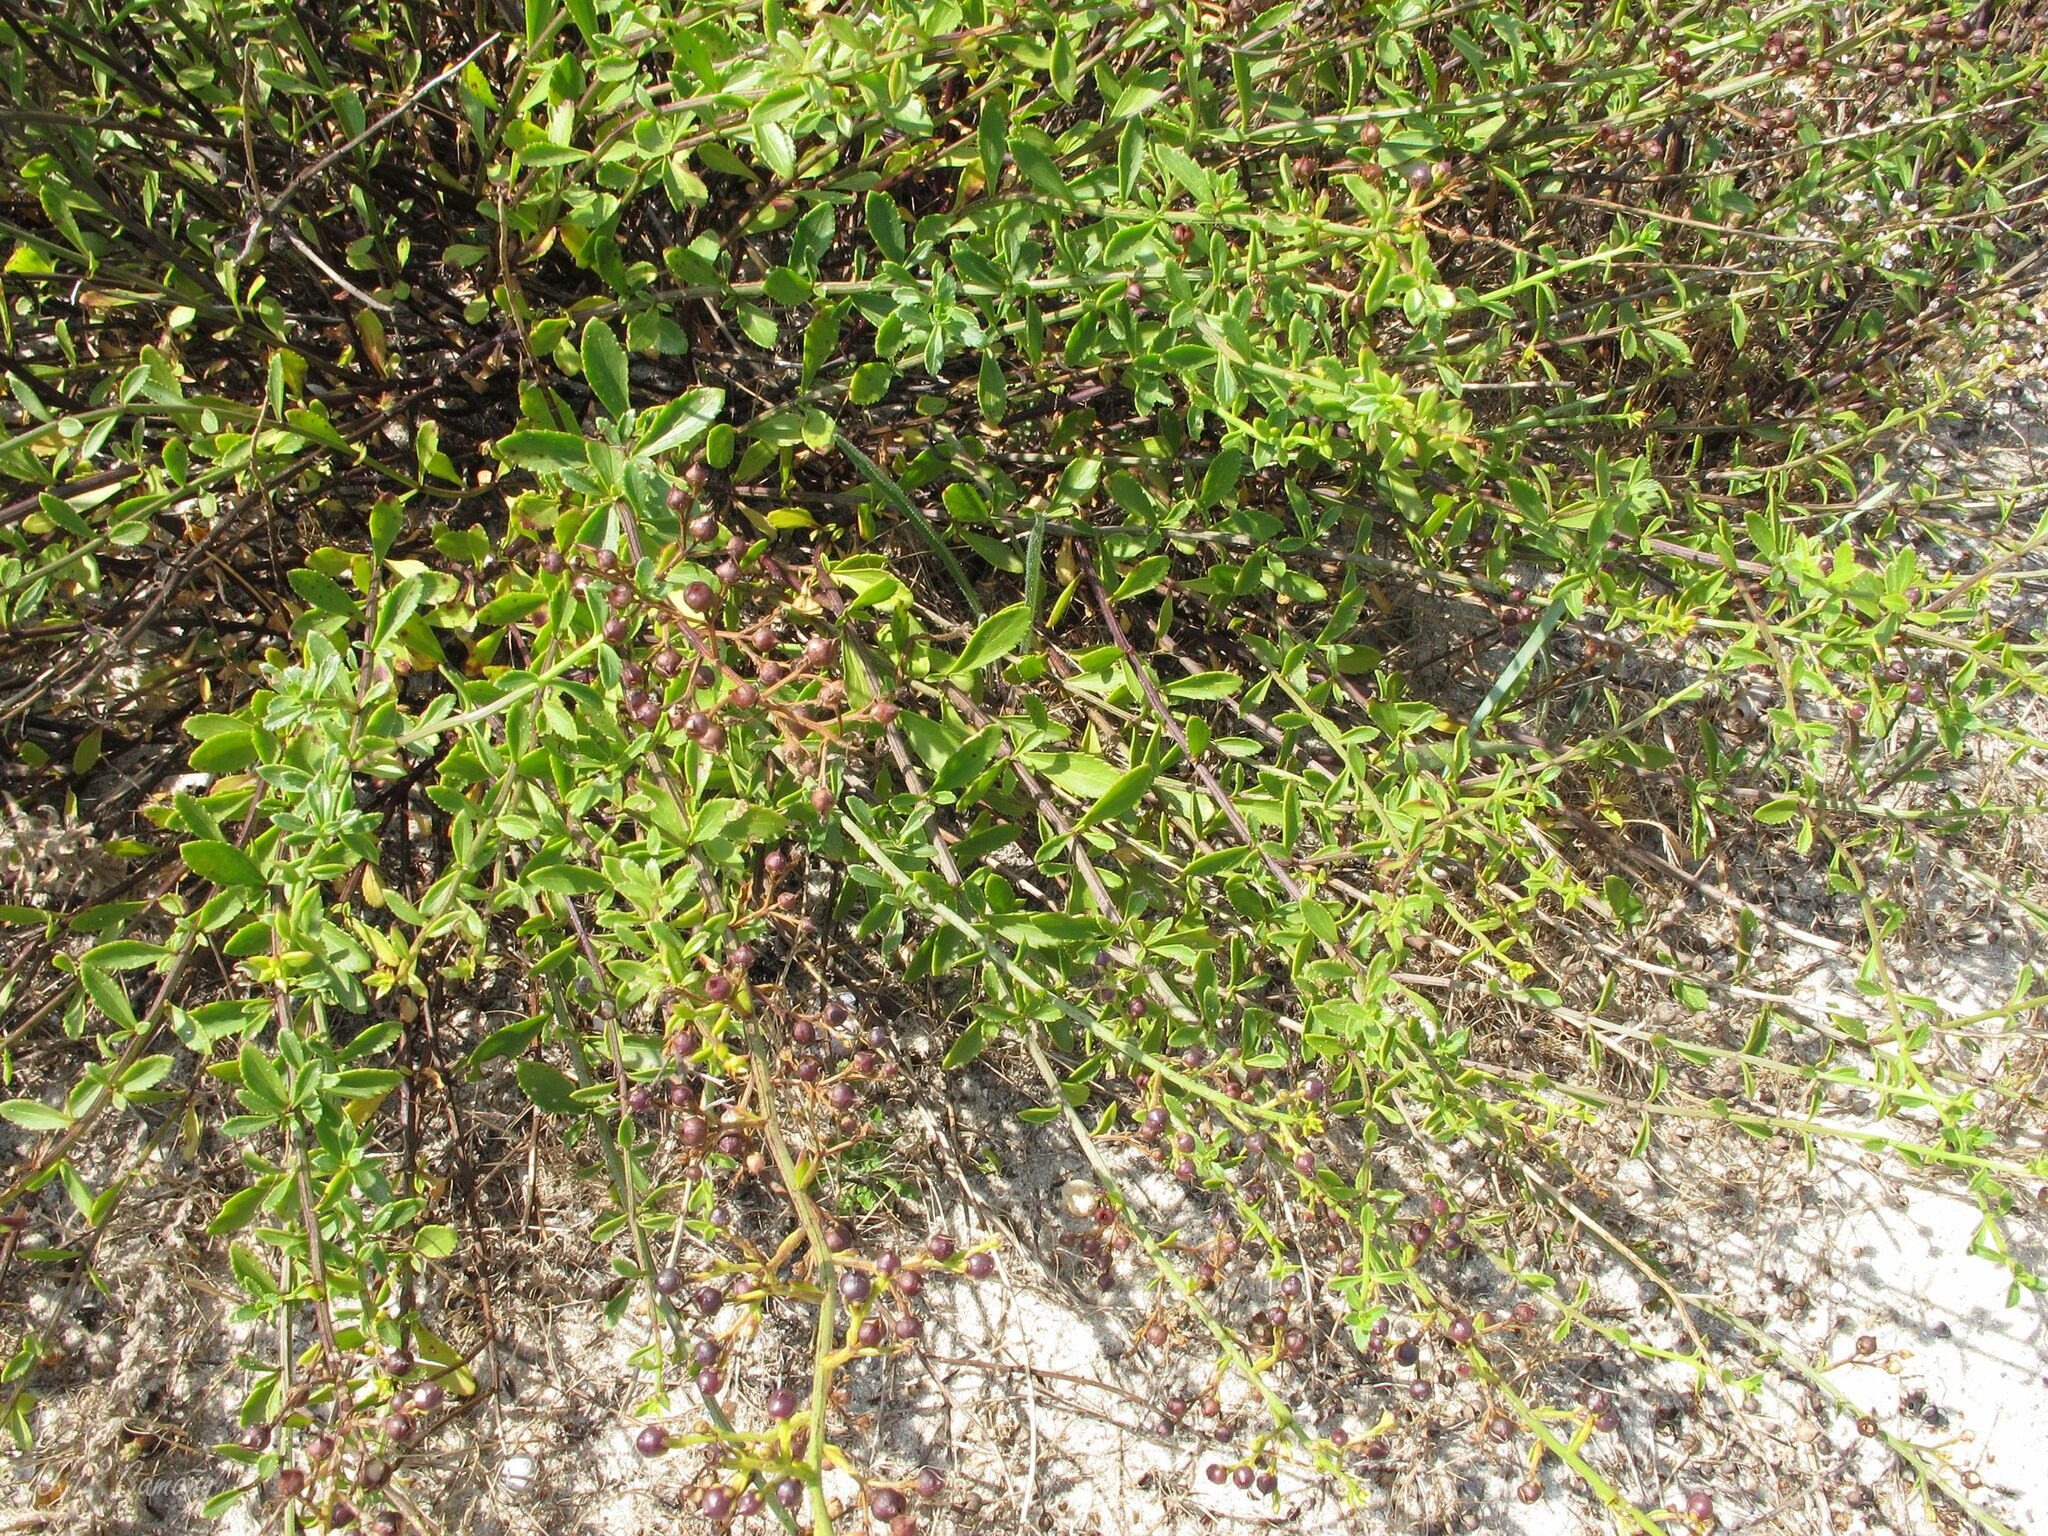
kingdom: Plantae
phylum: Tracheophyta
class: Magnoliopsida
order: Lamiales
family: Scrophulariaceae
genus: Scrophularia
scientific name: Scrophularia frutescens
